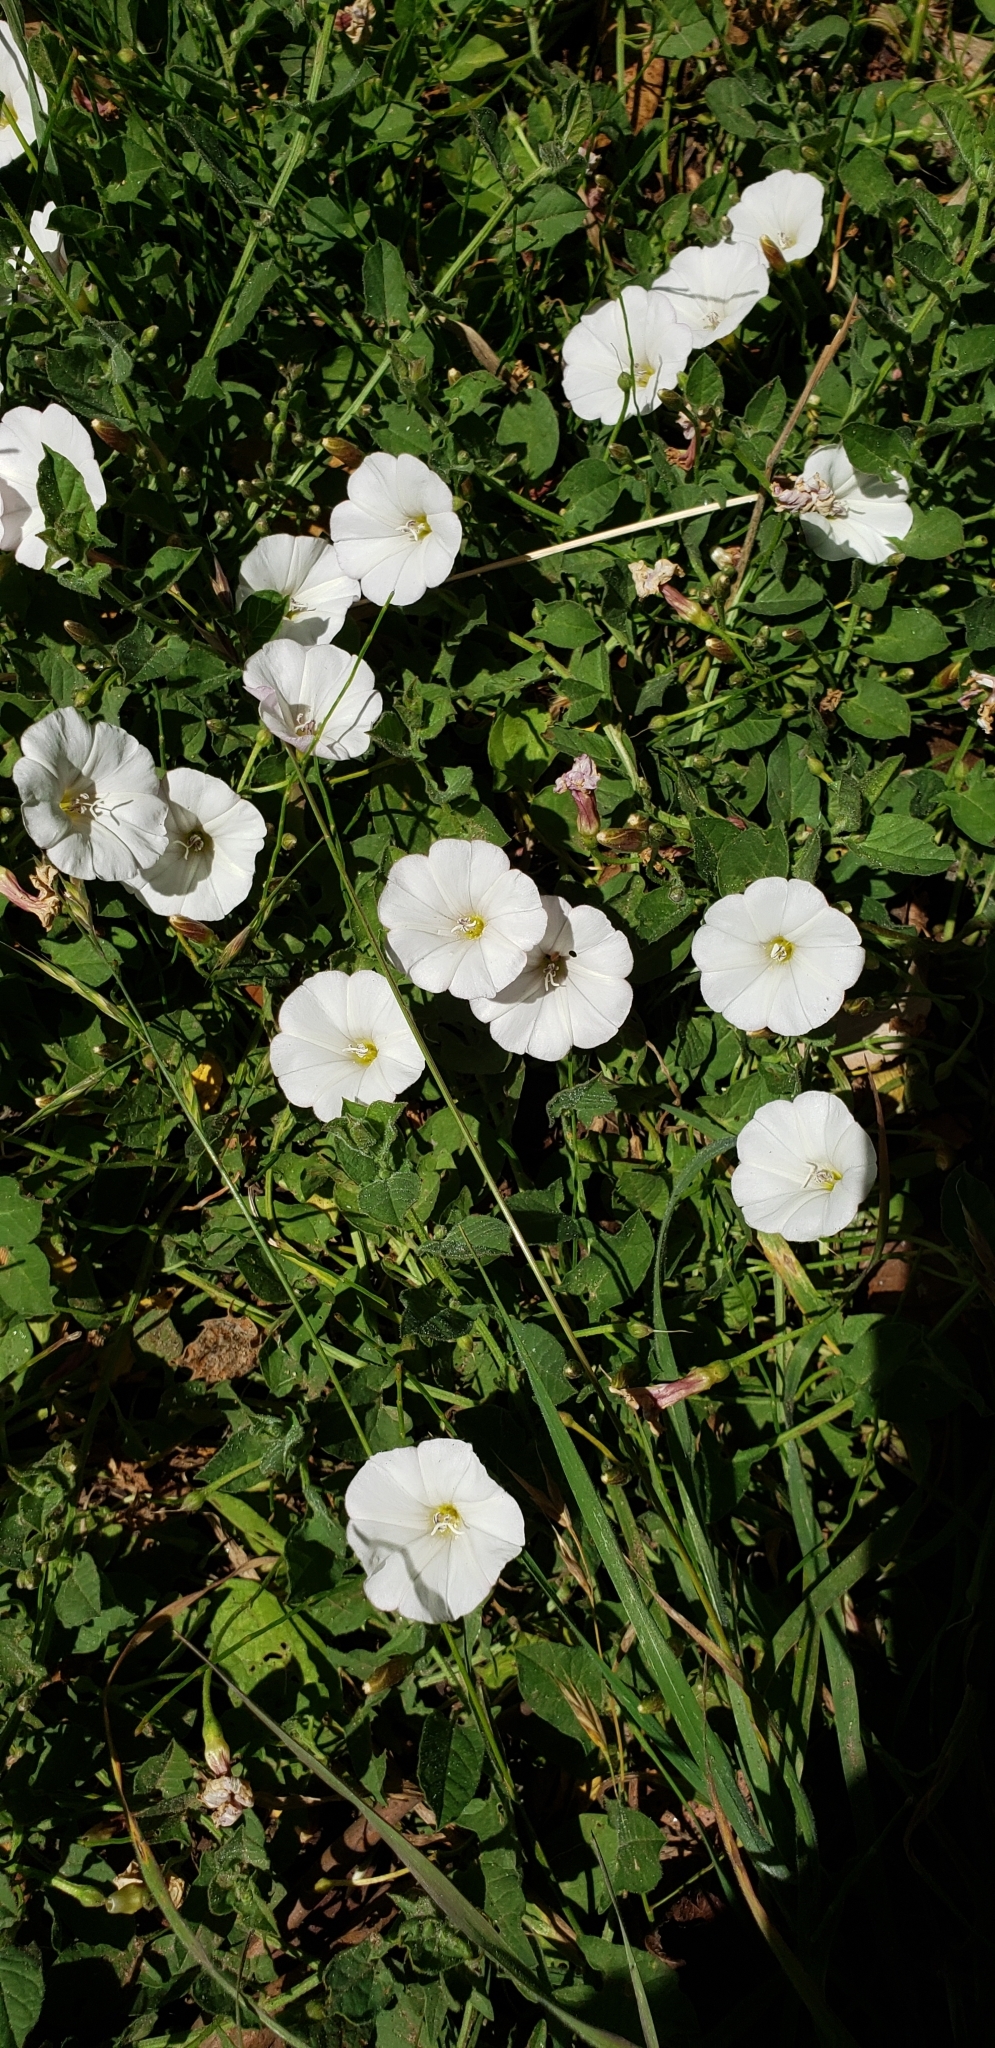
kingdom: Plantae
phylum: Tracheophyta
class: Magnoliopsida
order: Solanales
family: Convolvulaceae
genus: Convolvulus
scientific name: Convolvulus arvensis
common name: Field bindweed
